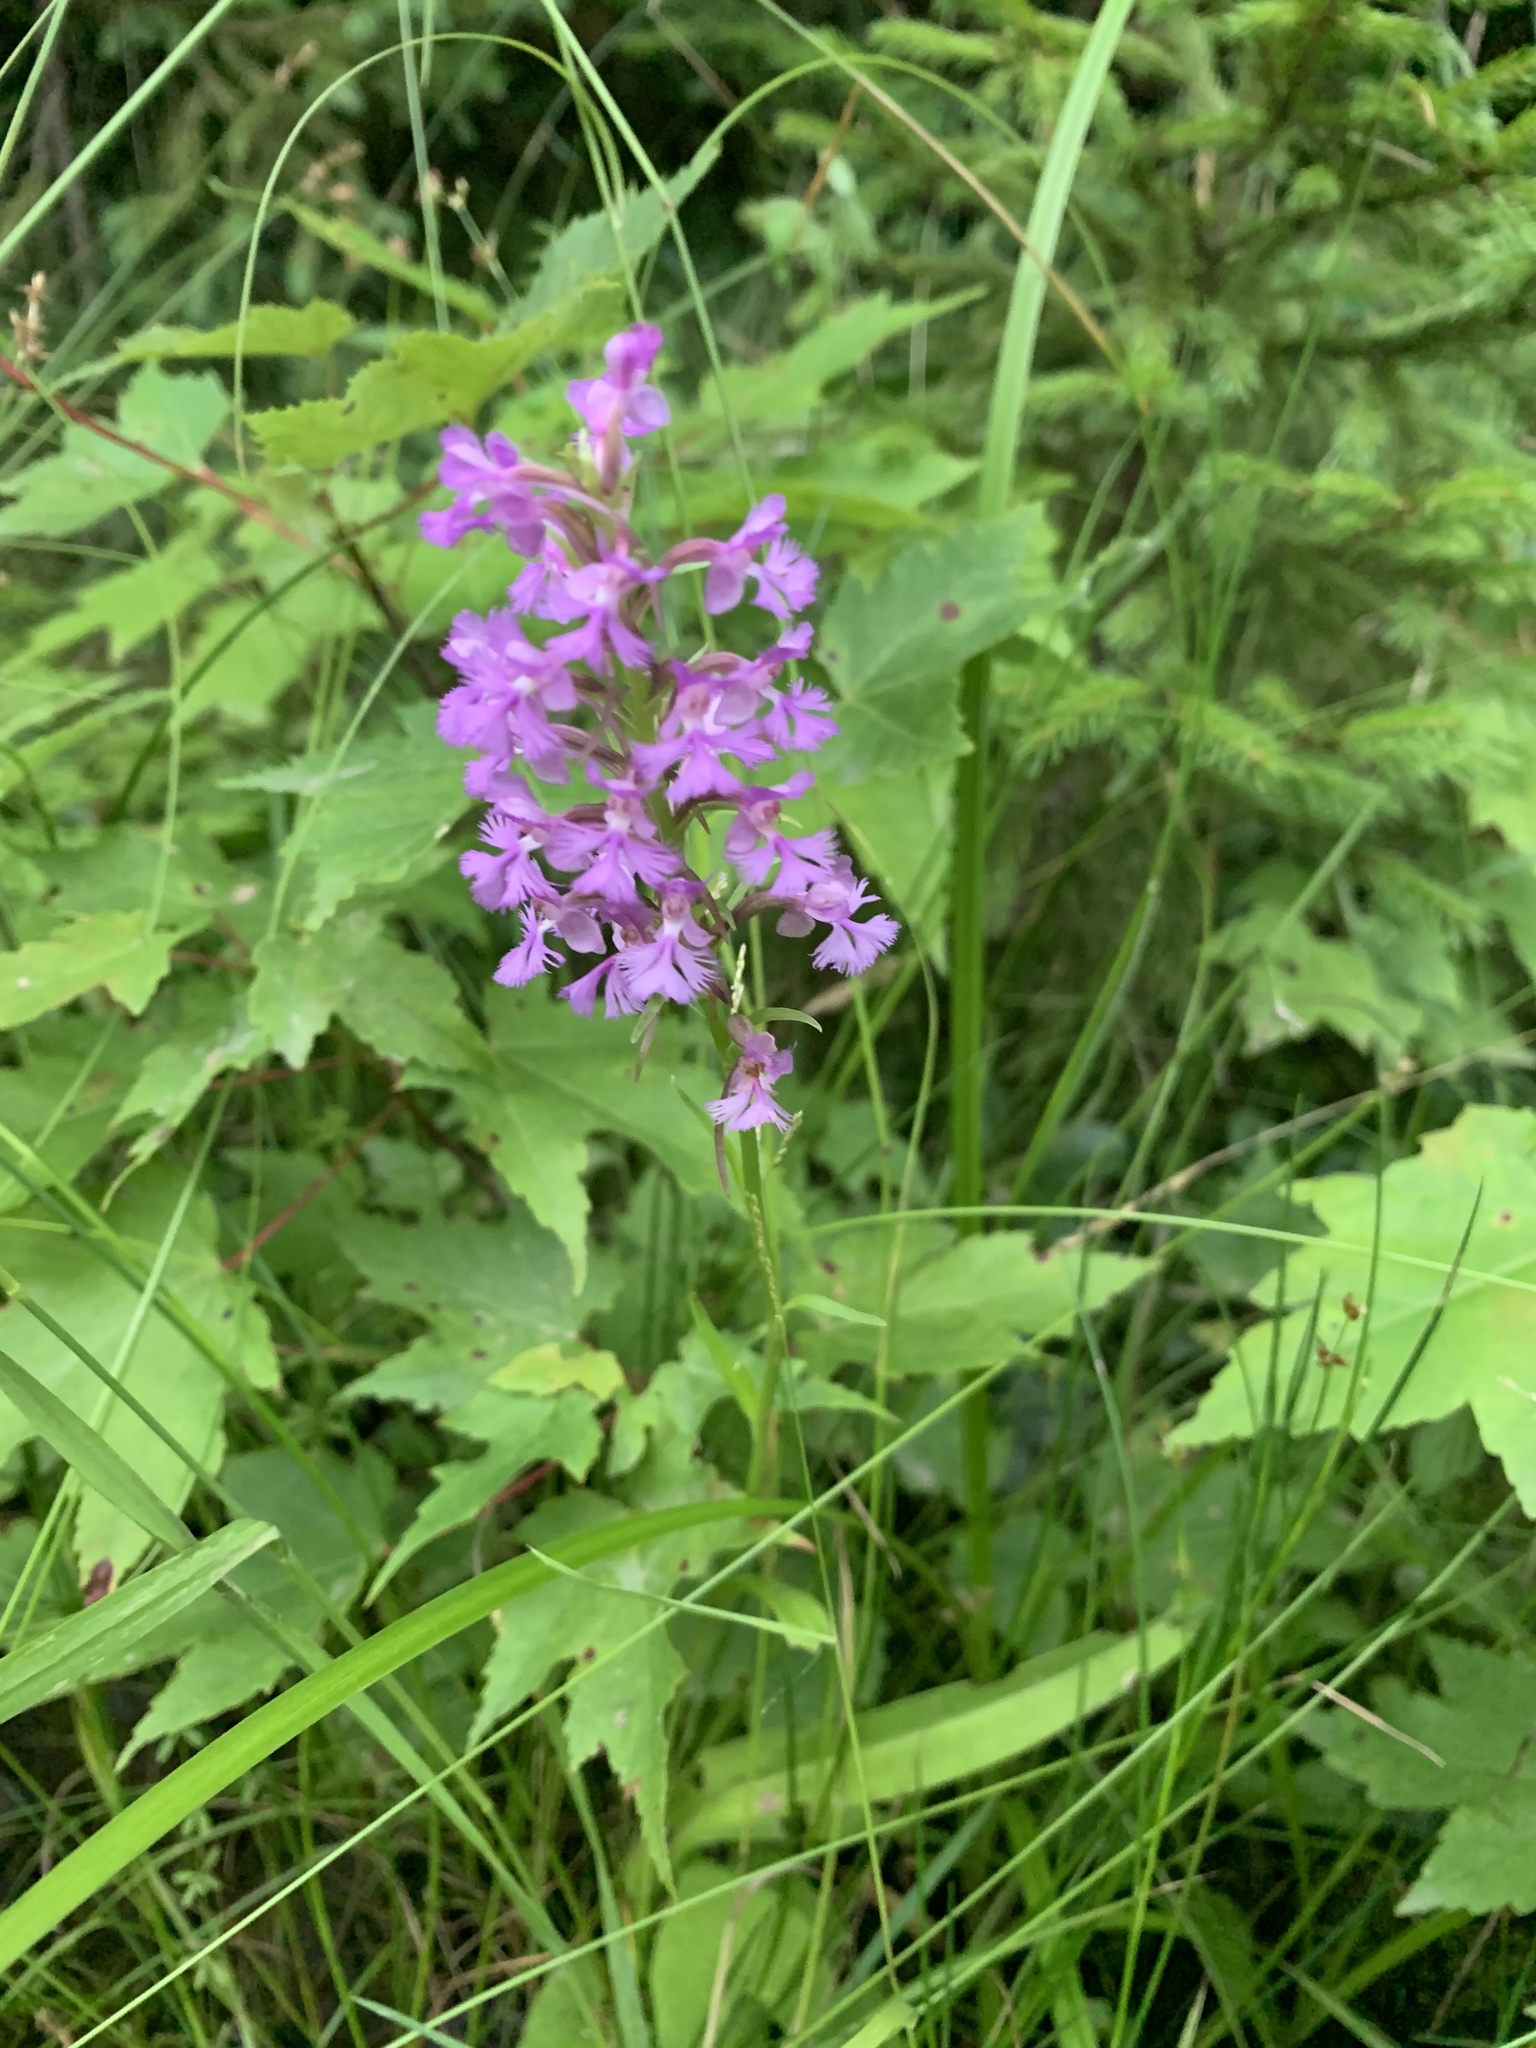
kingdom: Plantae
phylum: Tracheophyta
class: Liliopsida
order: Asparagales
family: Orchidaceae
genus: Platanthera
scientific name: Platanthera psycodes
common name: Lesser purple fringed orchid
